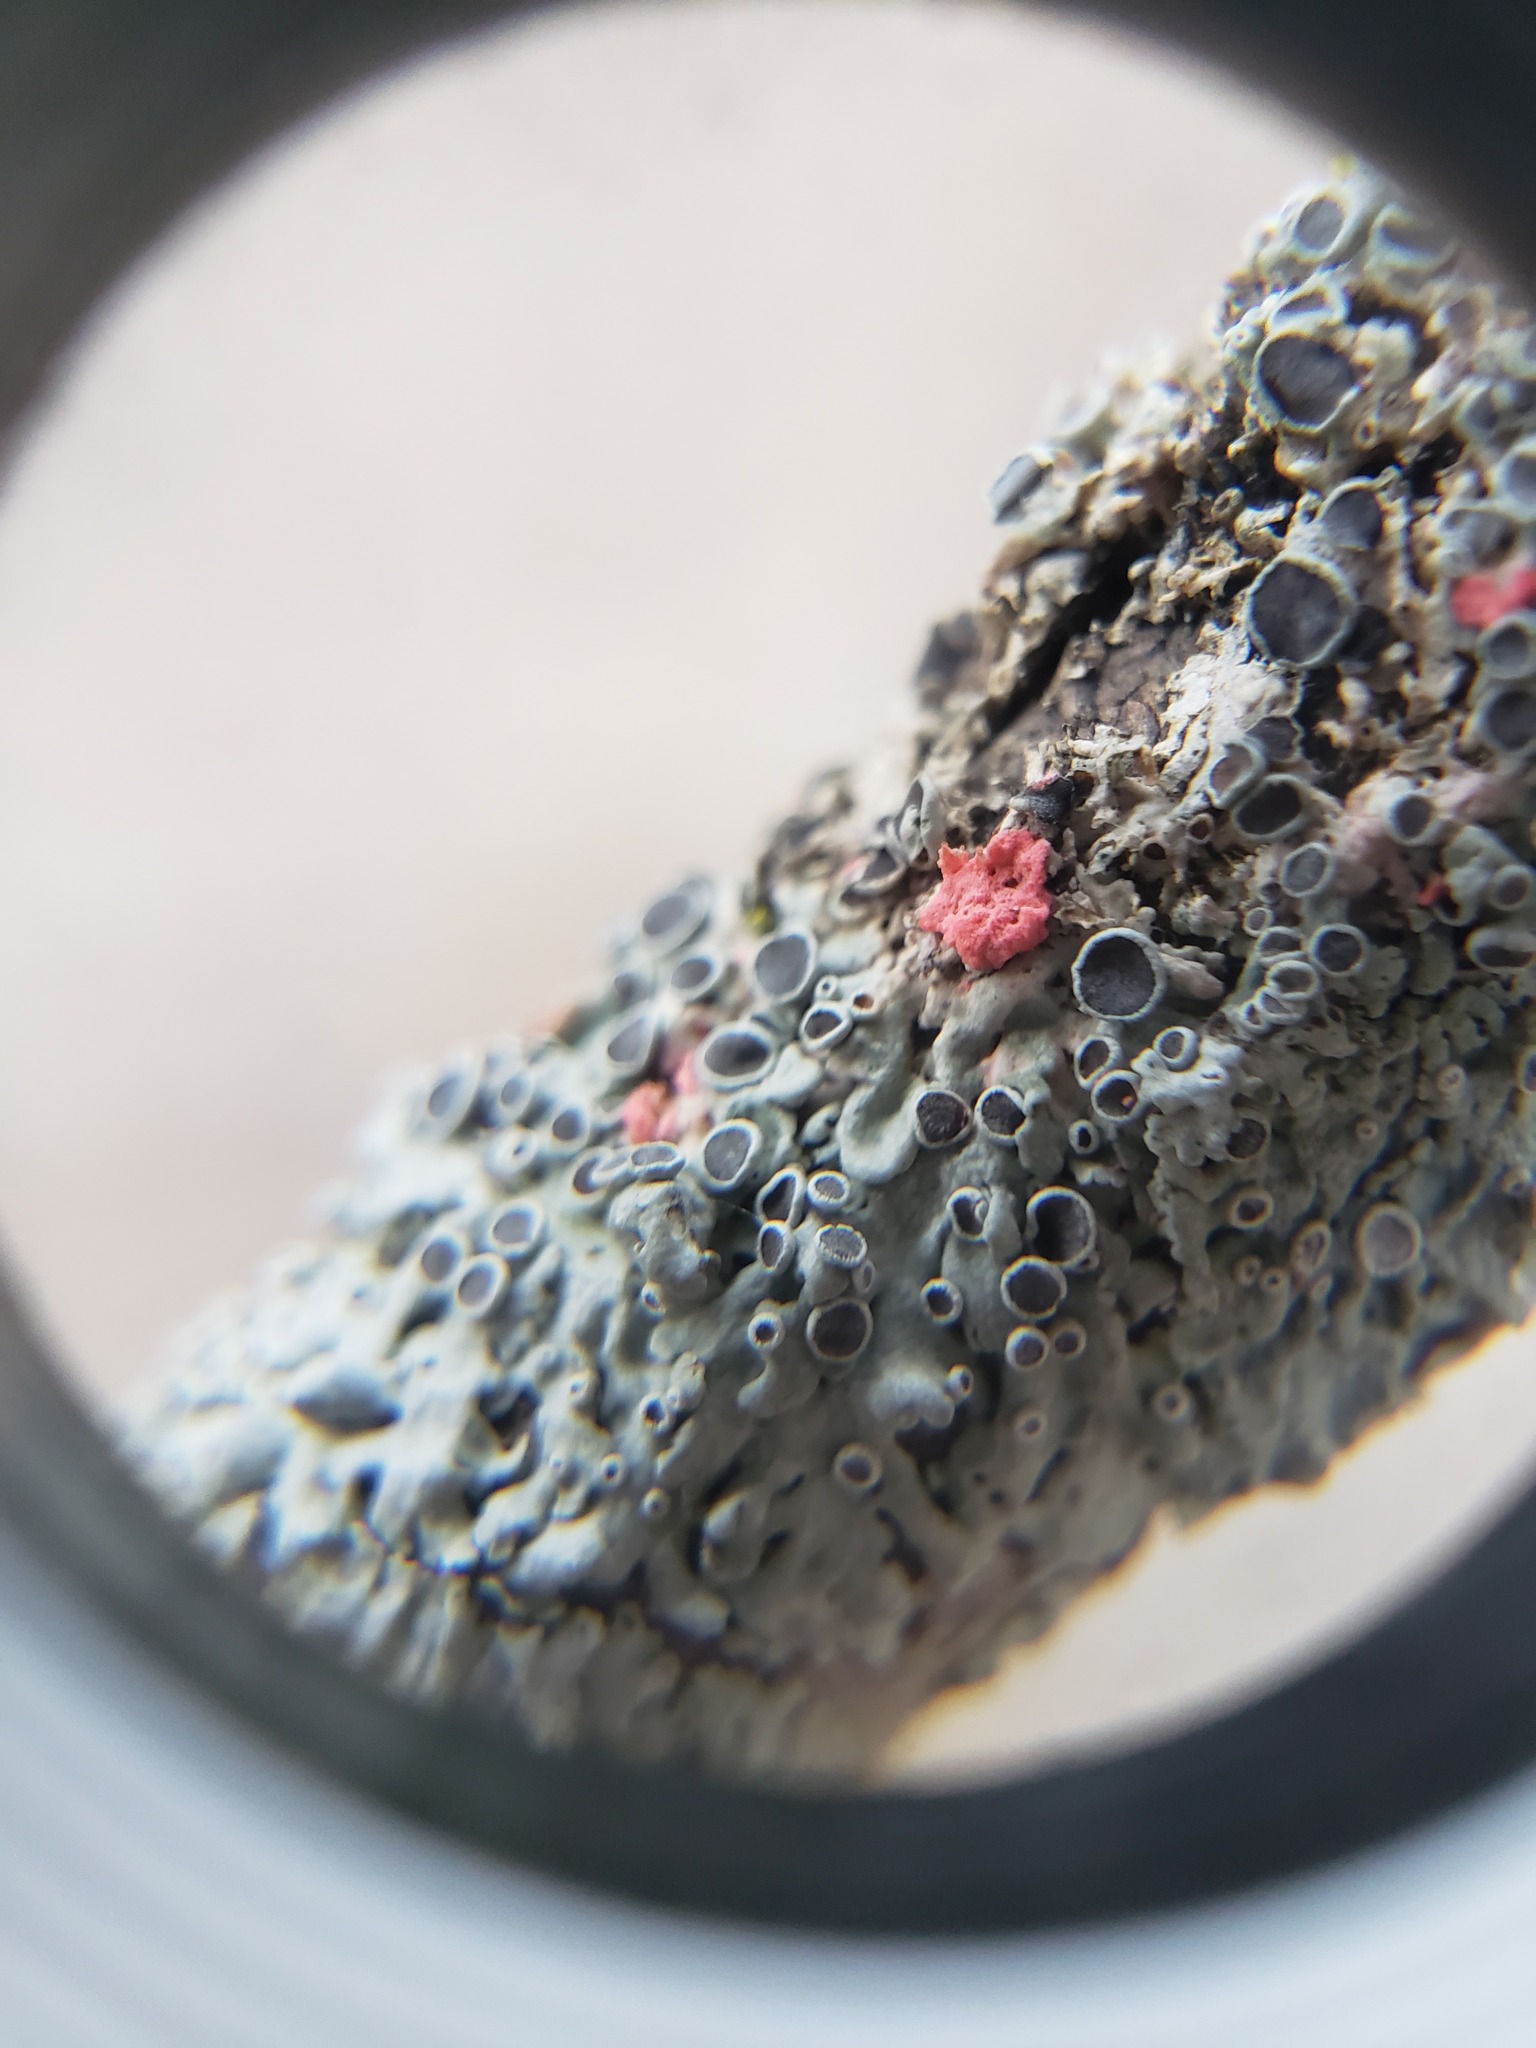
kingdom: Fungi
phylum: Ascomycota
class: Sordariomycetes
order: Hypocreales
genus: Illosporiopsis
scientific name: Illosporiopsis christiansenii
